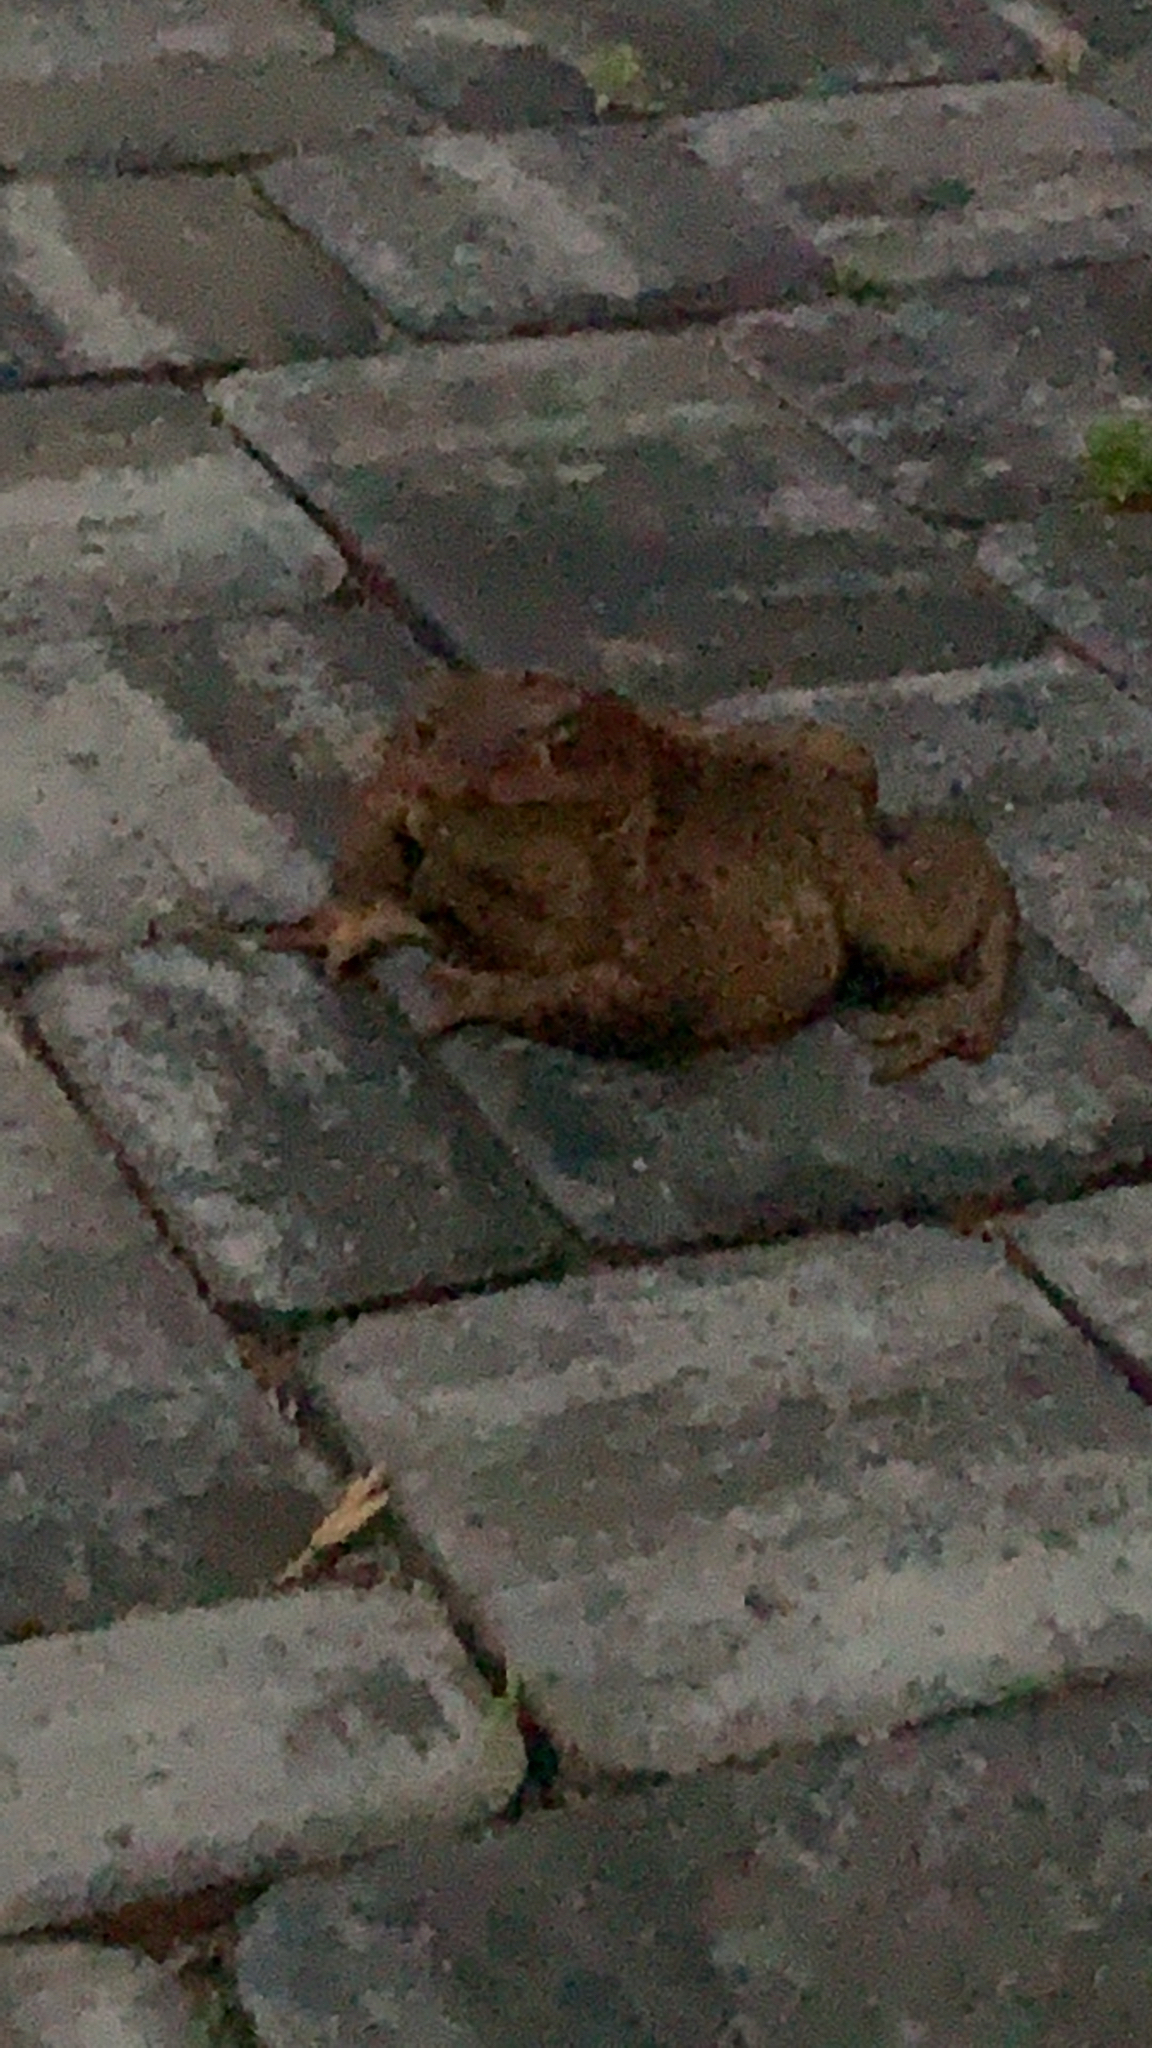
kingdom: Animalia
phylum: Chordata
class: Amphibia
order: Anura
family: Bufonidae
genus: Bufo
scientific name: Bufo bufo
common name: Common toad
